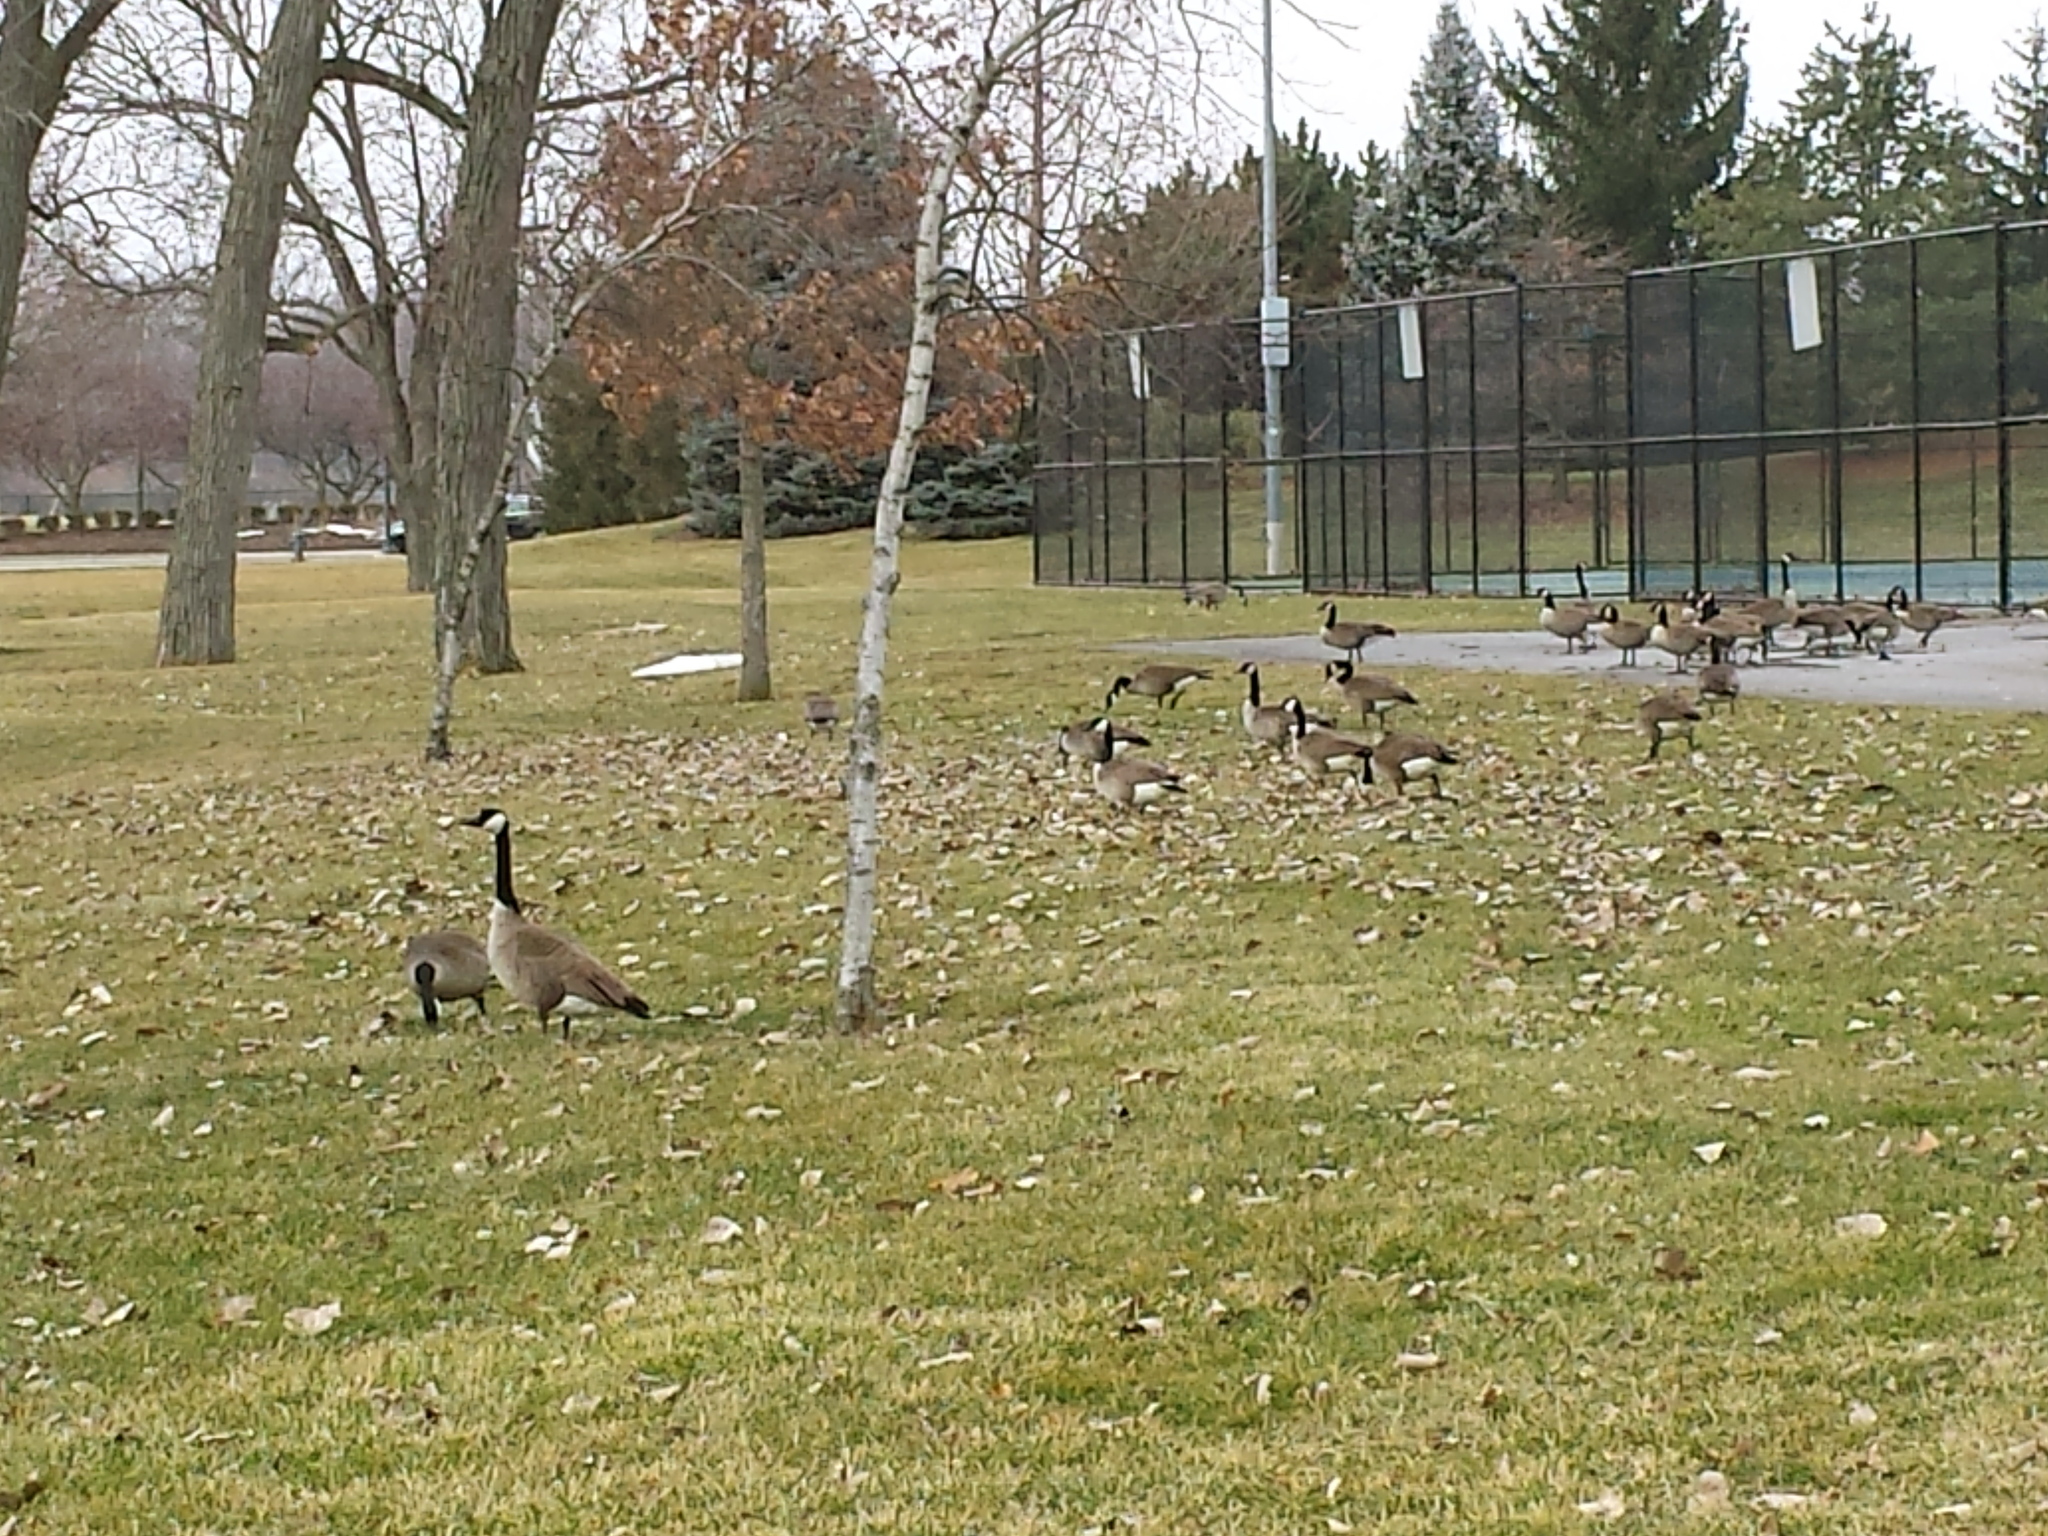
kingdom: Animalia
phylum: Chordata
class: Aves
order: Anseriformes
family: Anatidae
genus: Branta
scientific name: Branta canadensis
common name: Canada goose
